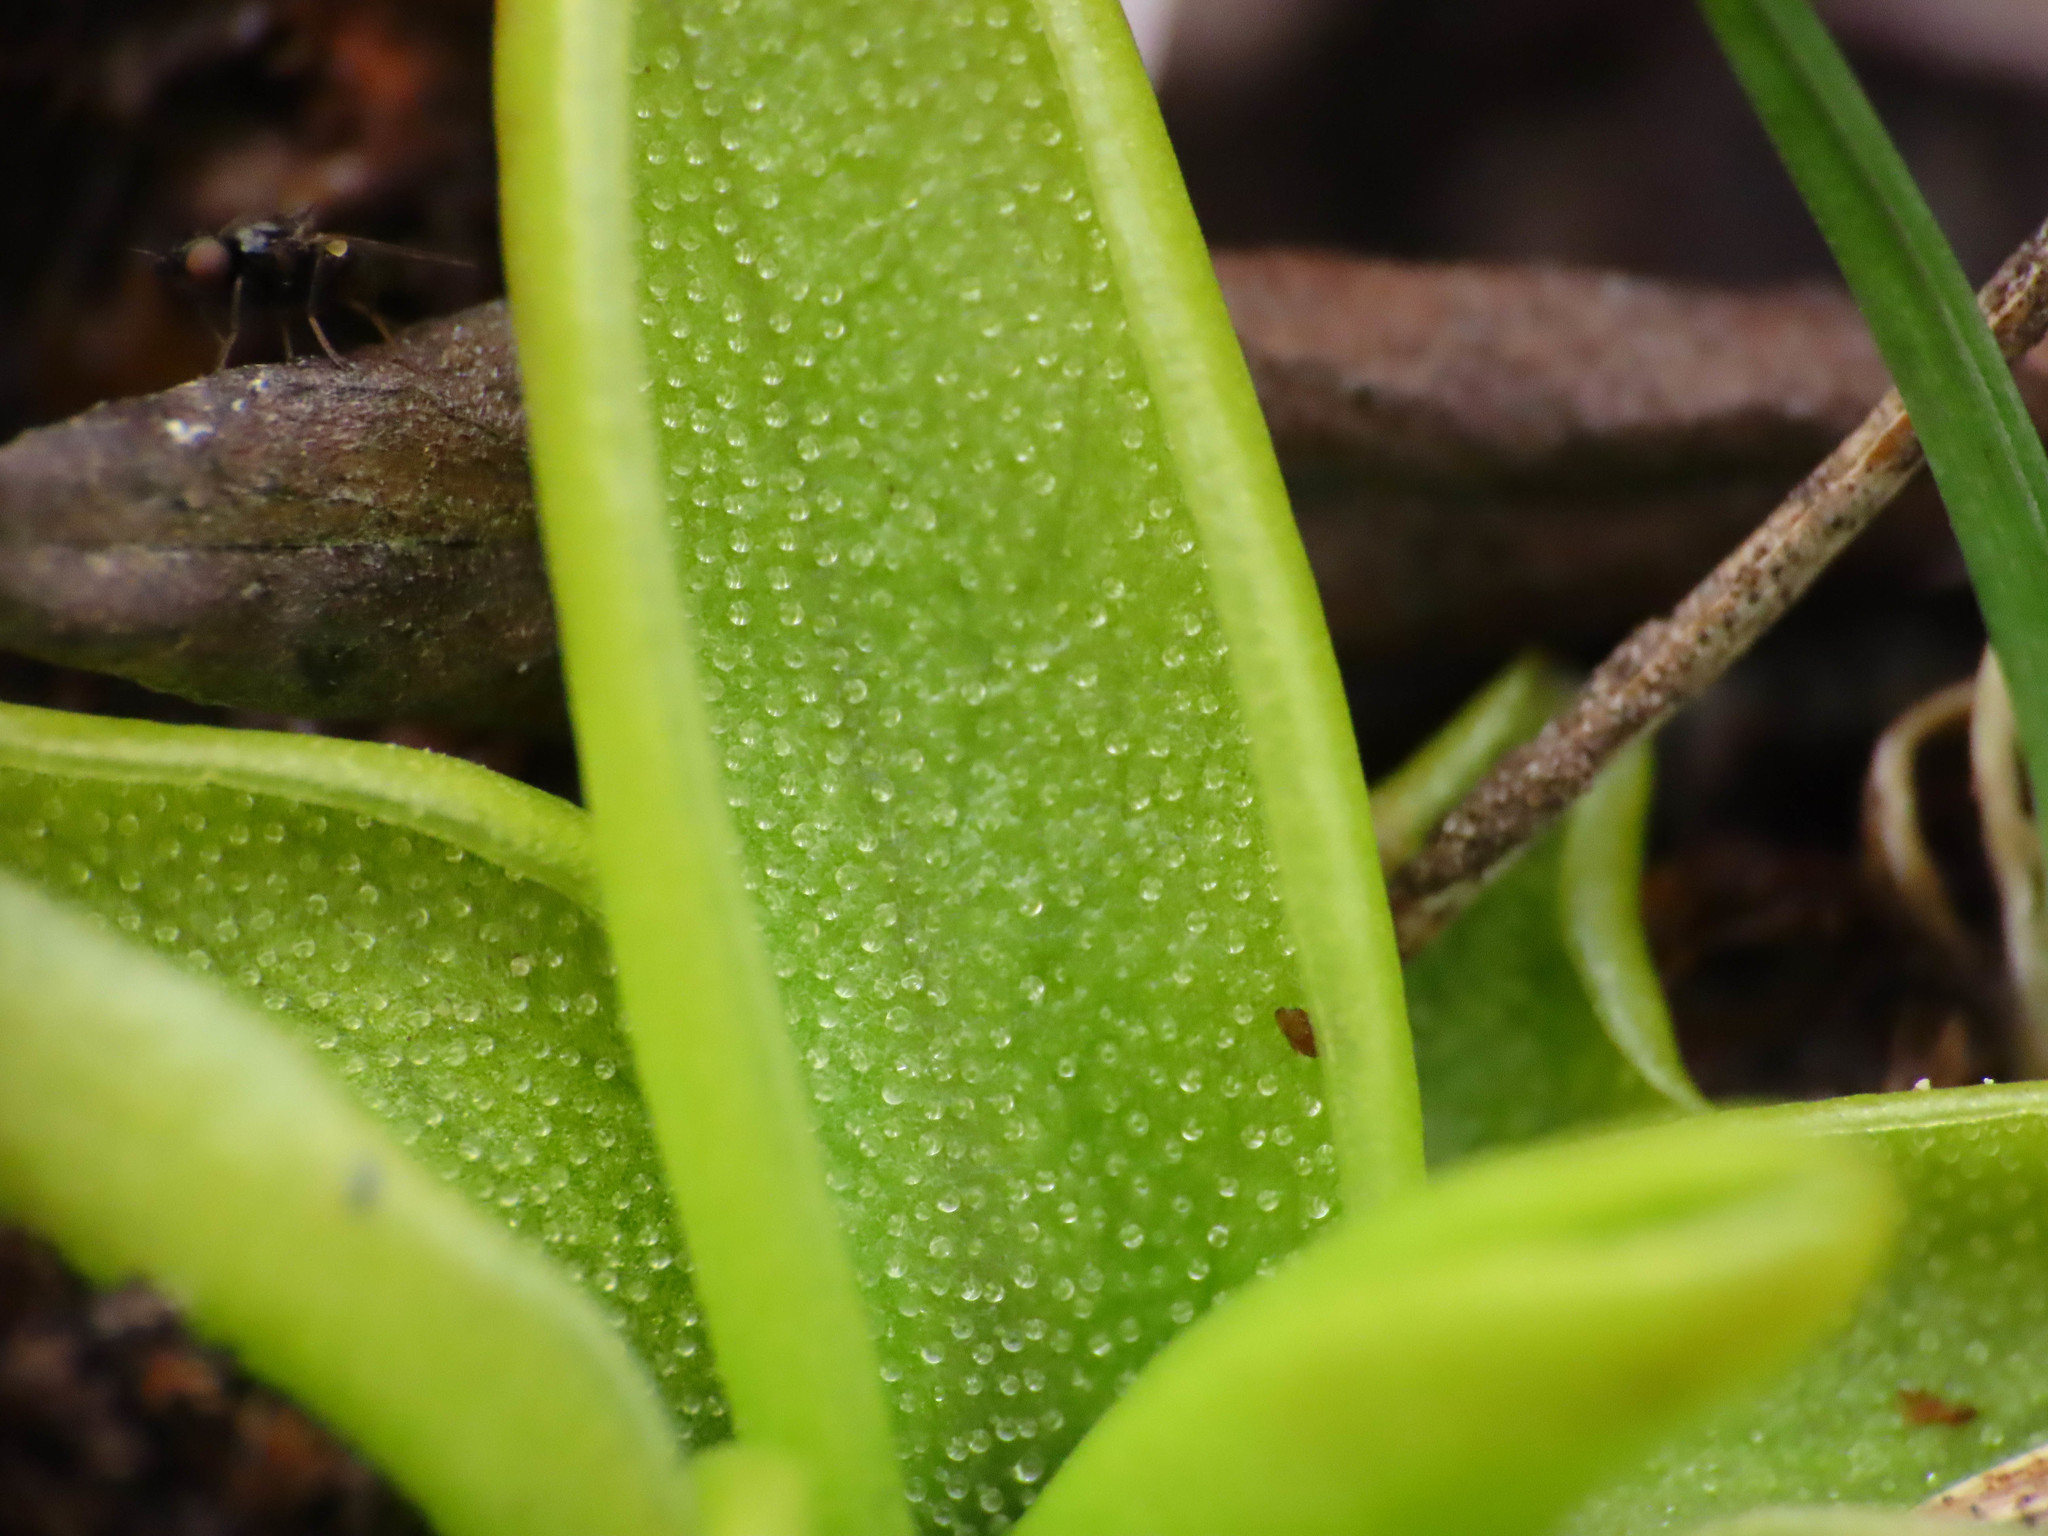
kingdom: Plantae
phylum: Tracheophyta
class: Magnoliopsida
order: Lamiales
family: Lentibulariaceae
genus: Pinguicula
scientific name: Pinguicula fiorii
